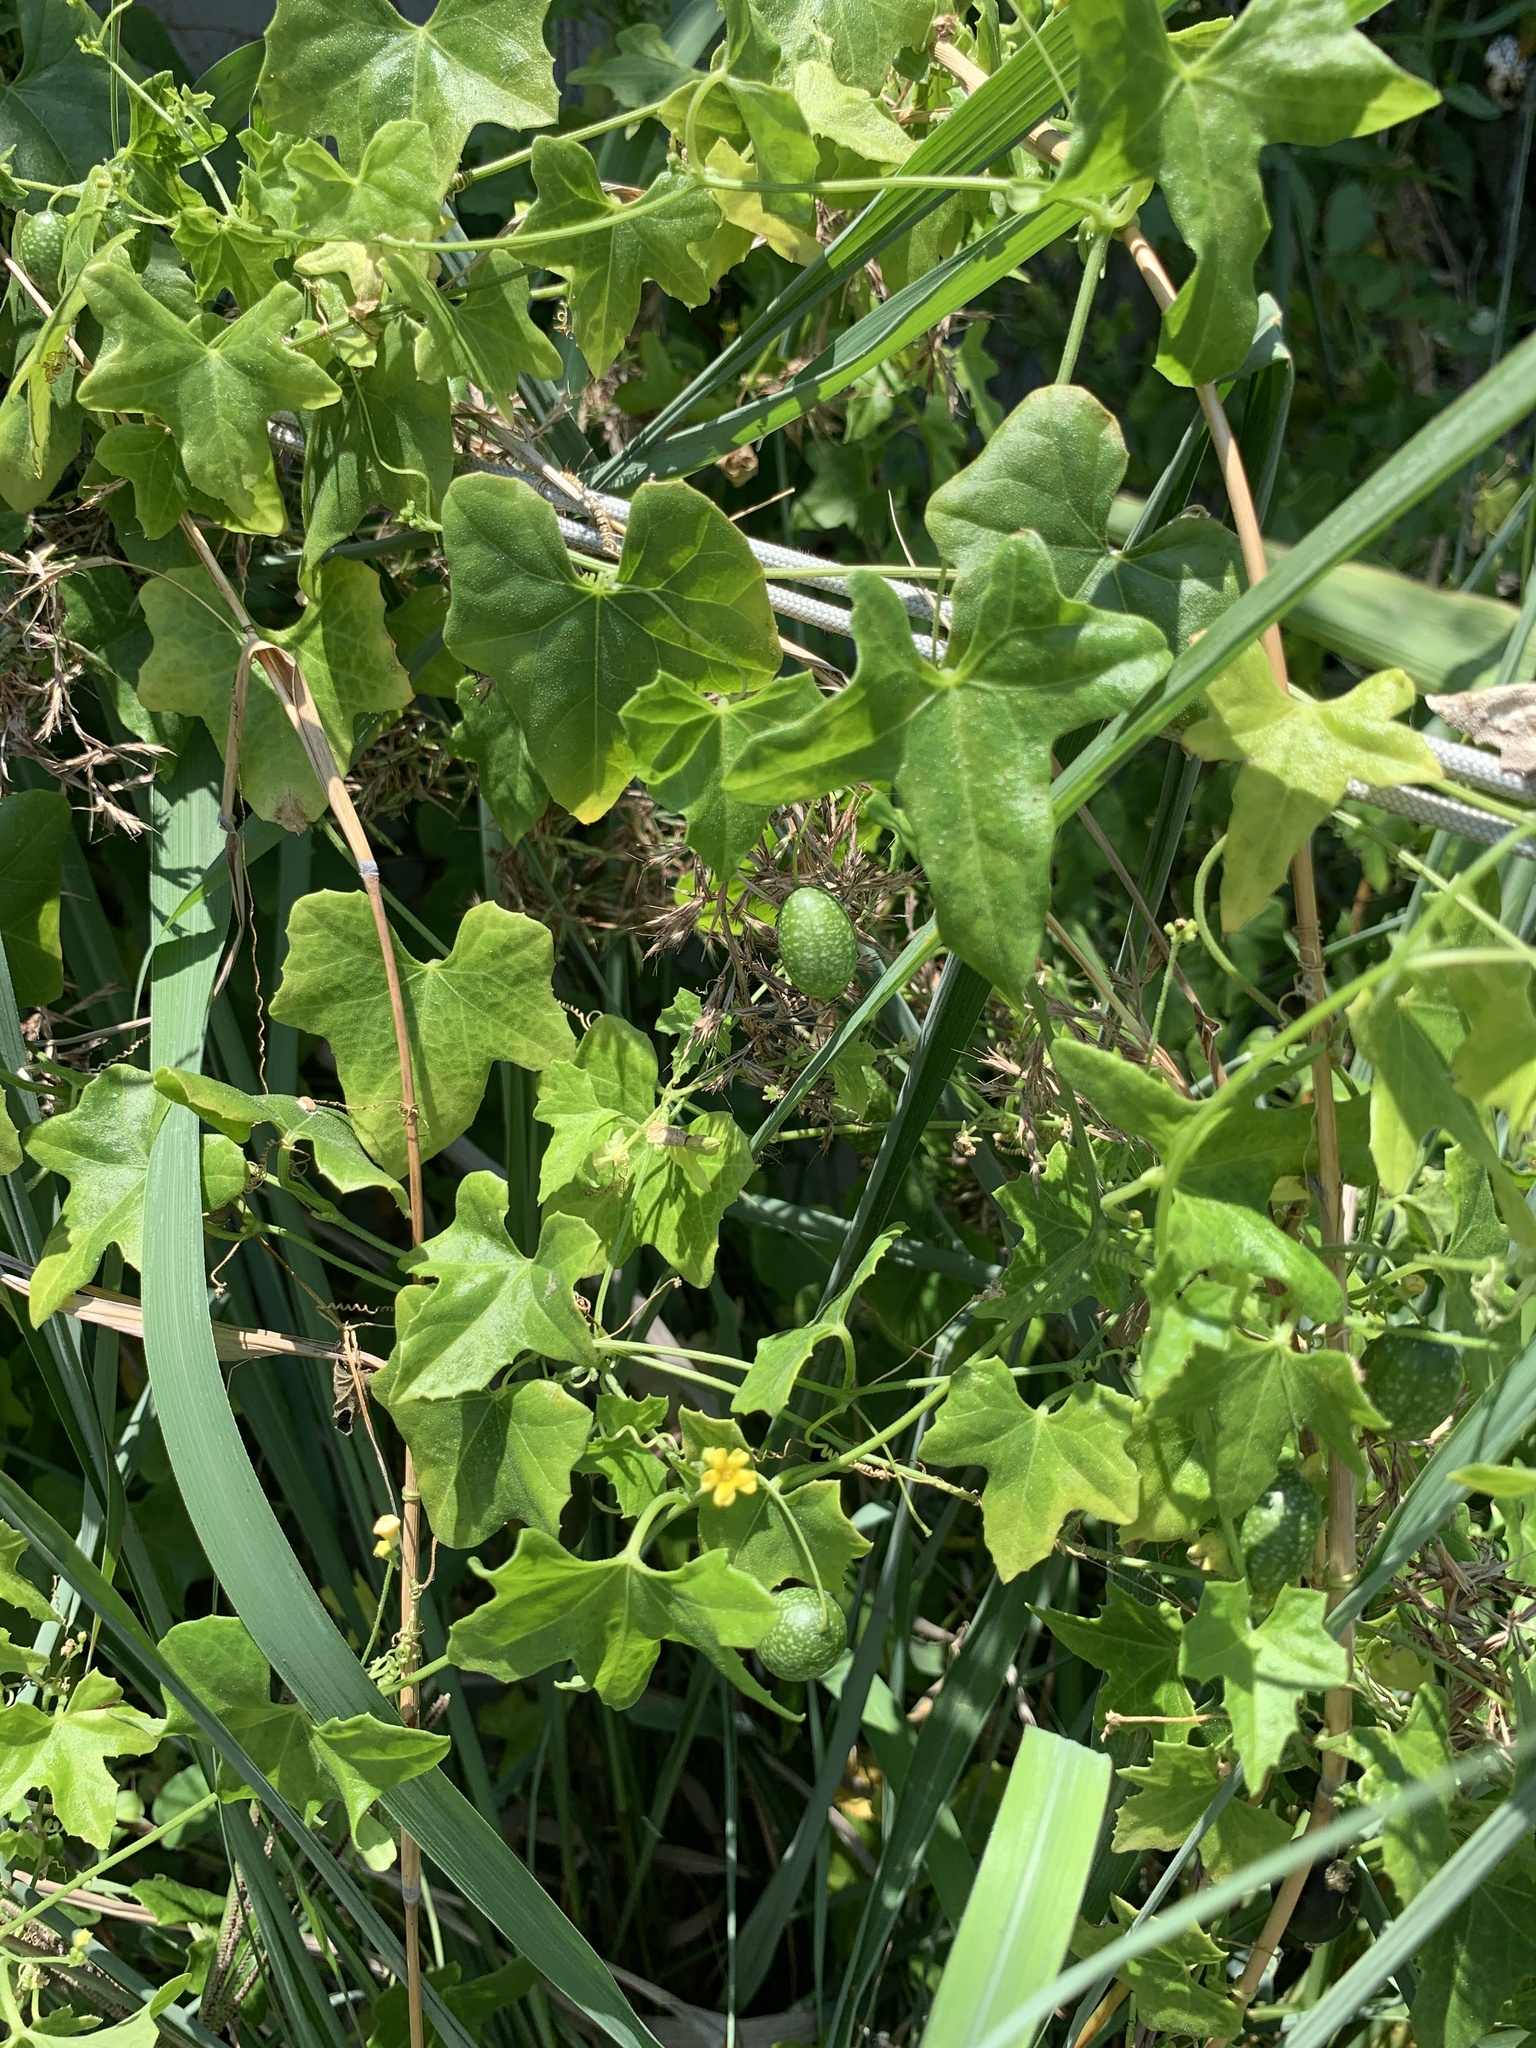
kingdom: Plantae
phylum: Tracheophyta
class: Magnoliopsida
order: Cucurbitales
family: Cucurbitaceae
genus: Melothria
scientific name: Melothria pendula
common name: Creeping-cucumber
